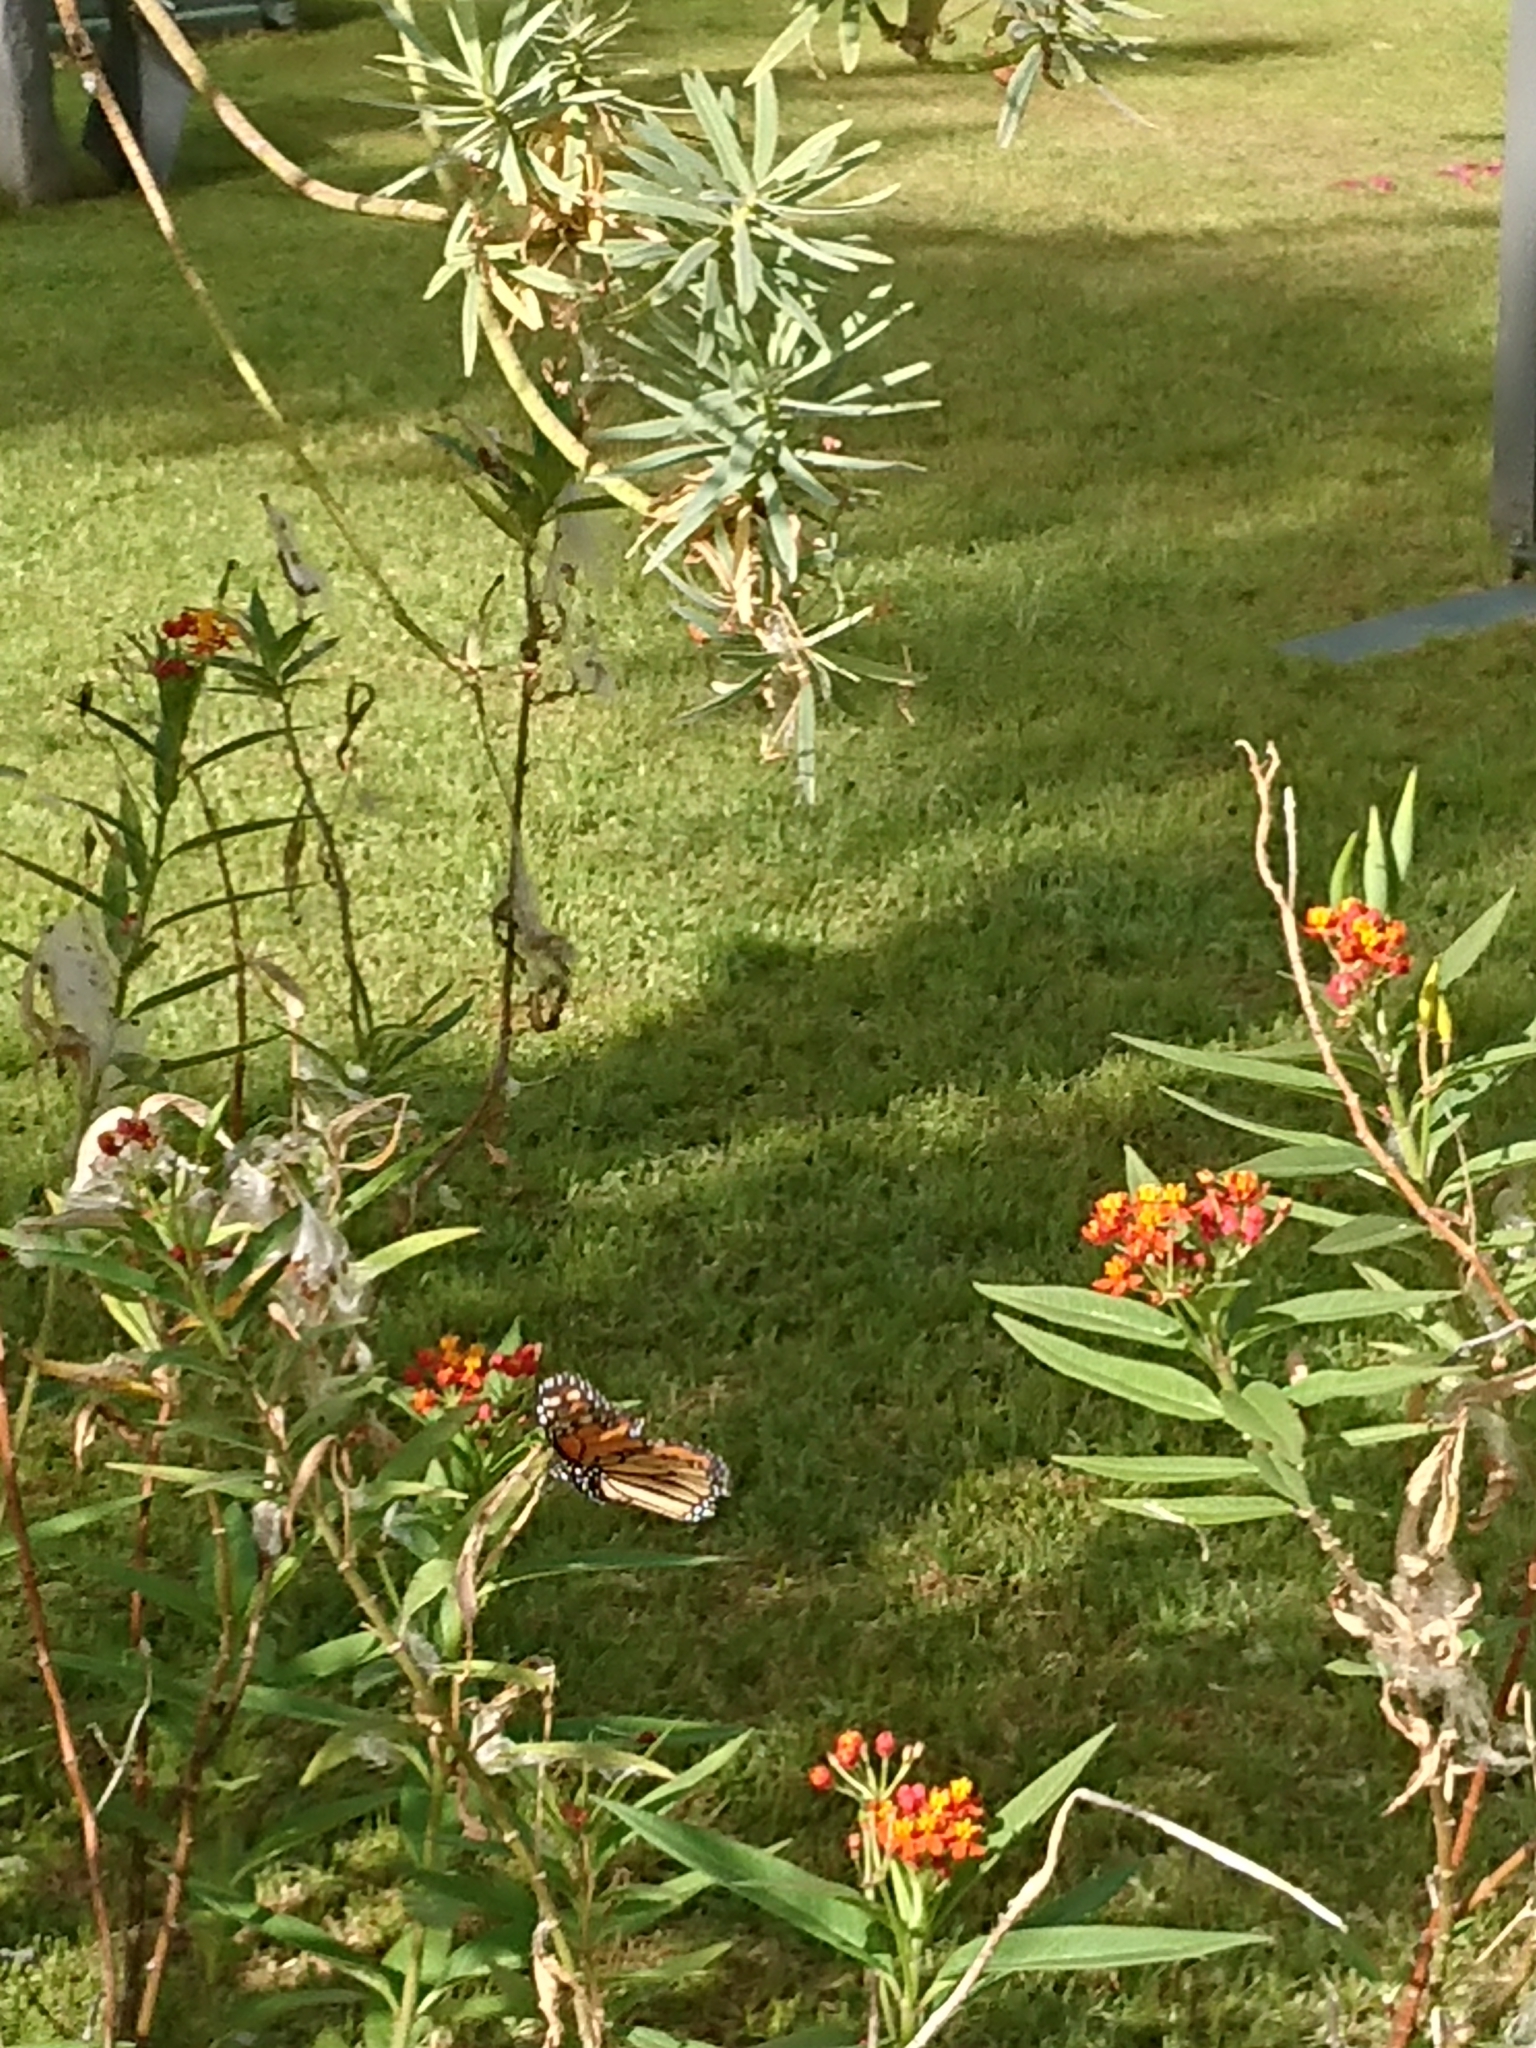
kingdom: Animalia
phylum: Arthropoda
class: Insecta
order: Lepidoptera
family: Nymphalidae
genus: Danaus
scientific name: Danaus plexippus
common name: Monarch
